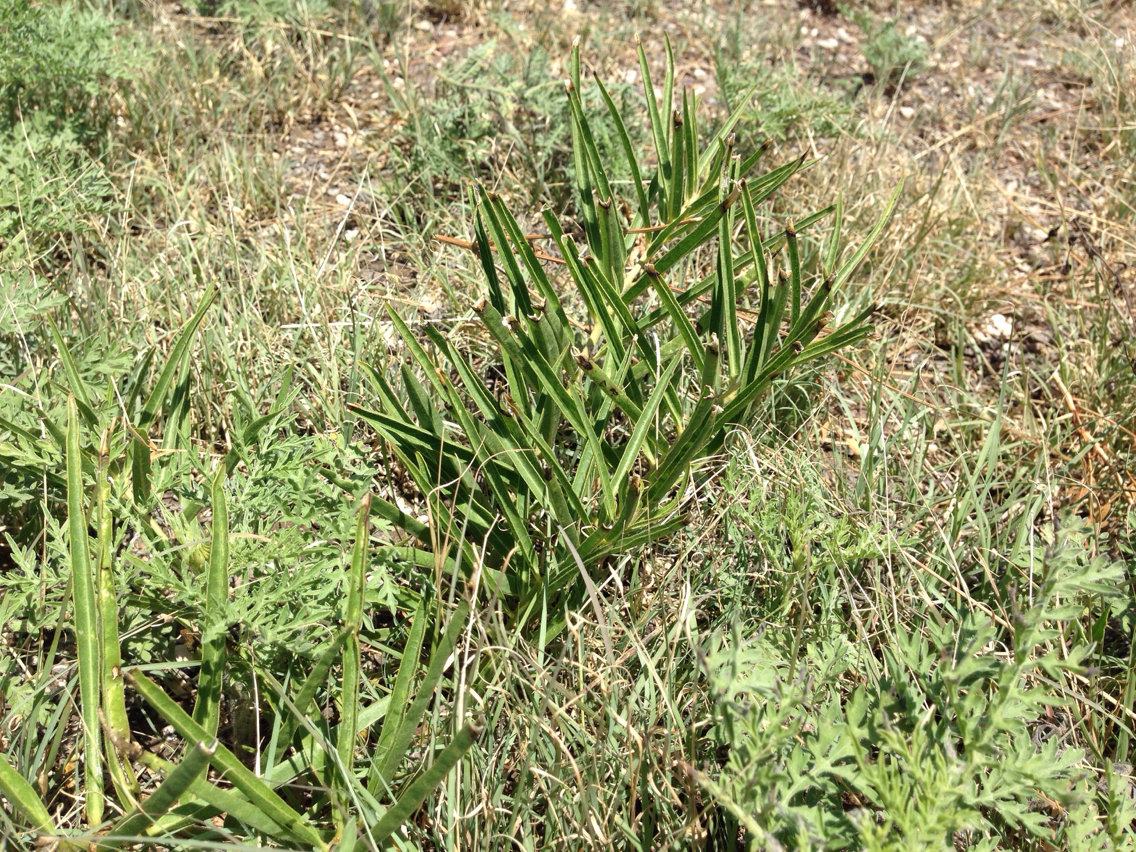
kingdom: Plantae
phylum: Tracheophyta
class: Magnoliopsida
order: Gentianales
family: Apocynaceae
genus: Asclepias
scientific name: Asclepias asperula
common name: Antelope horns
